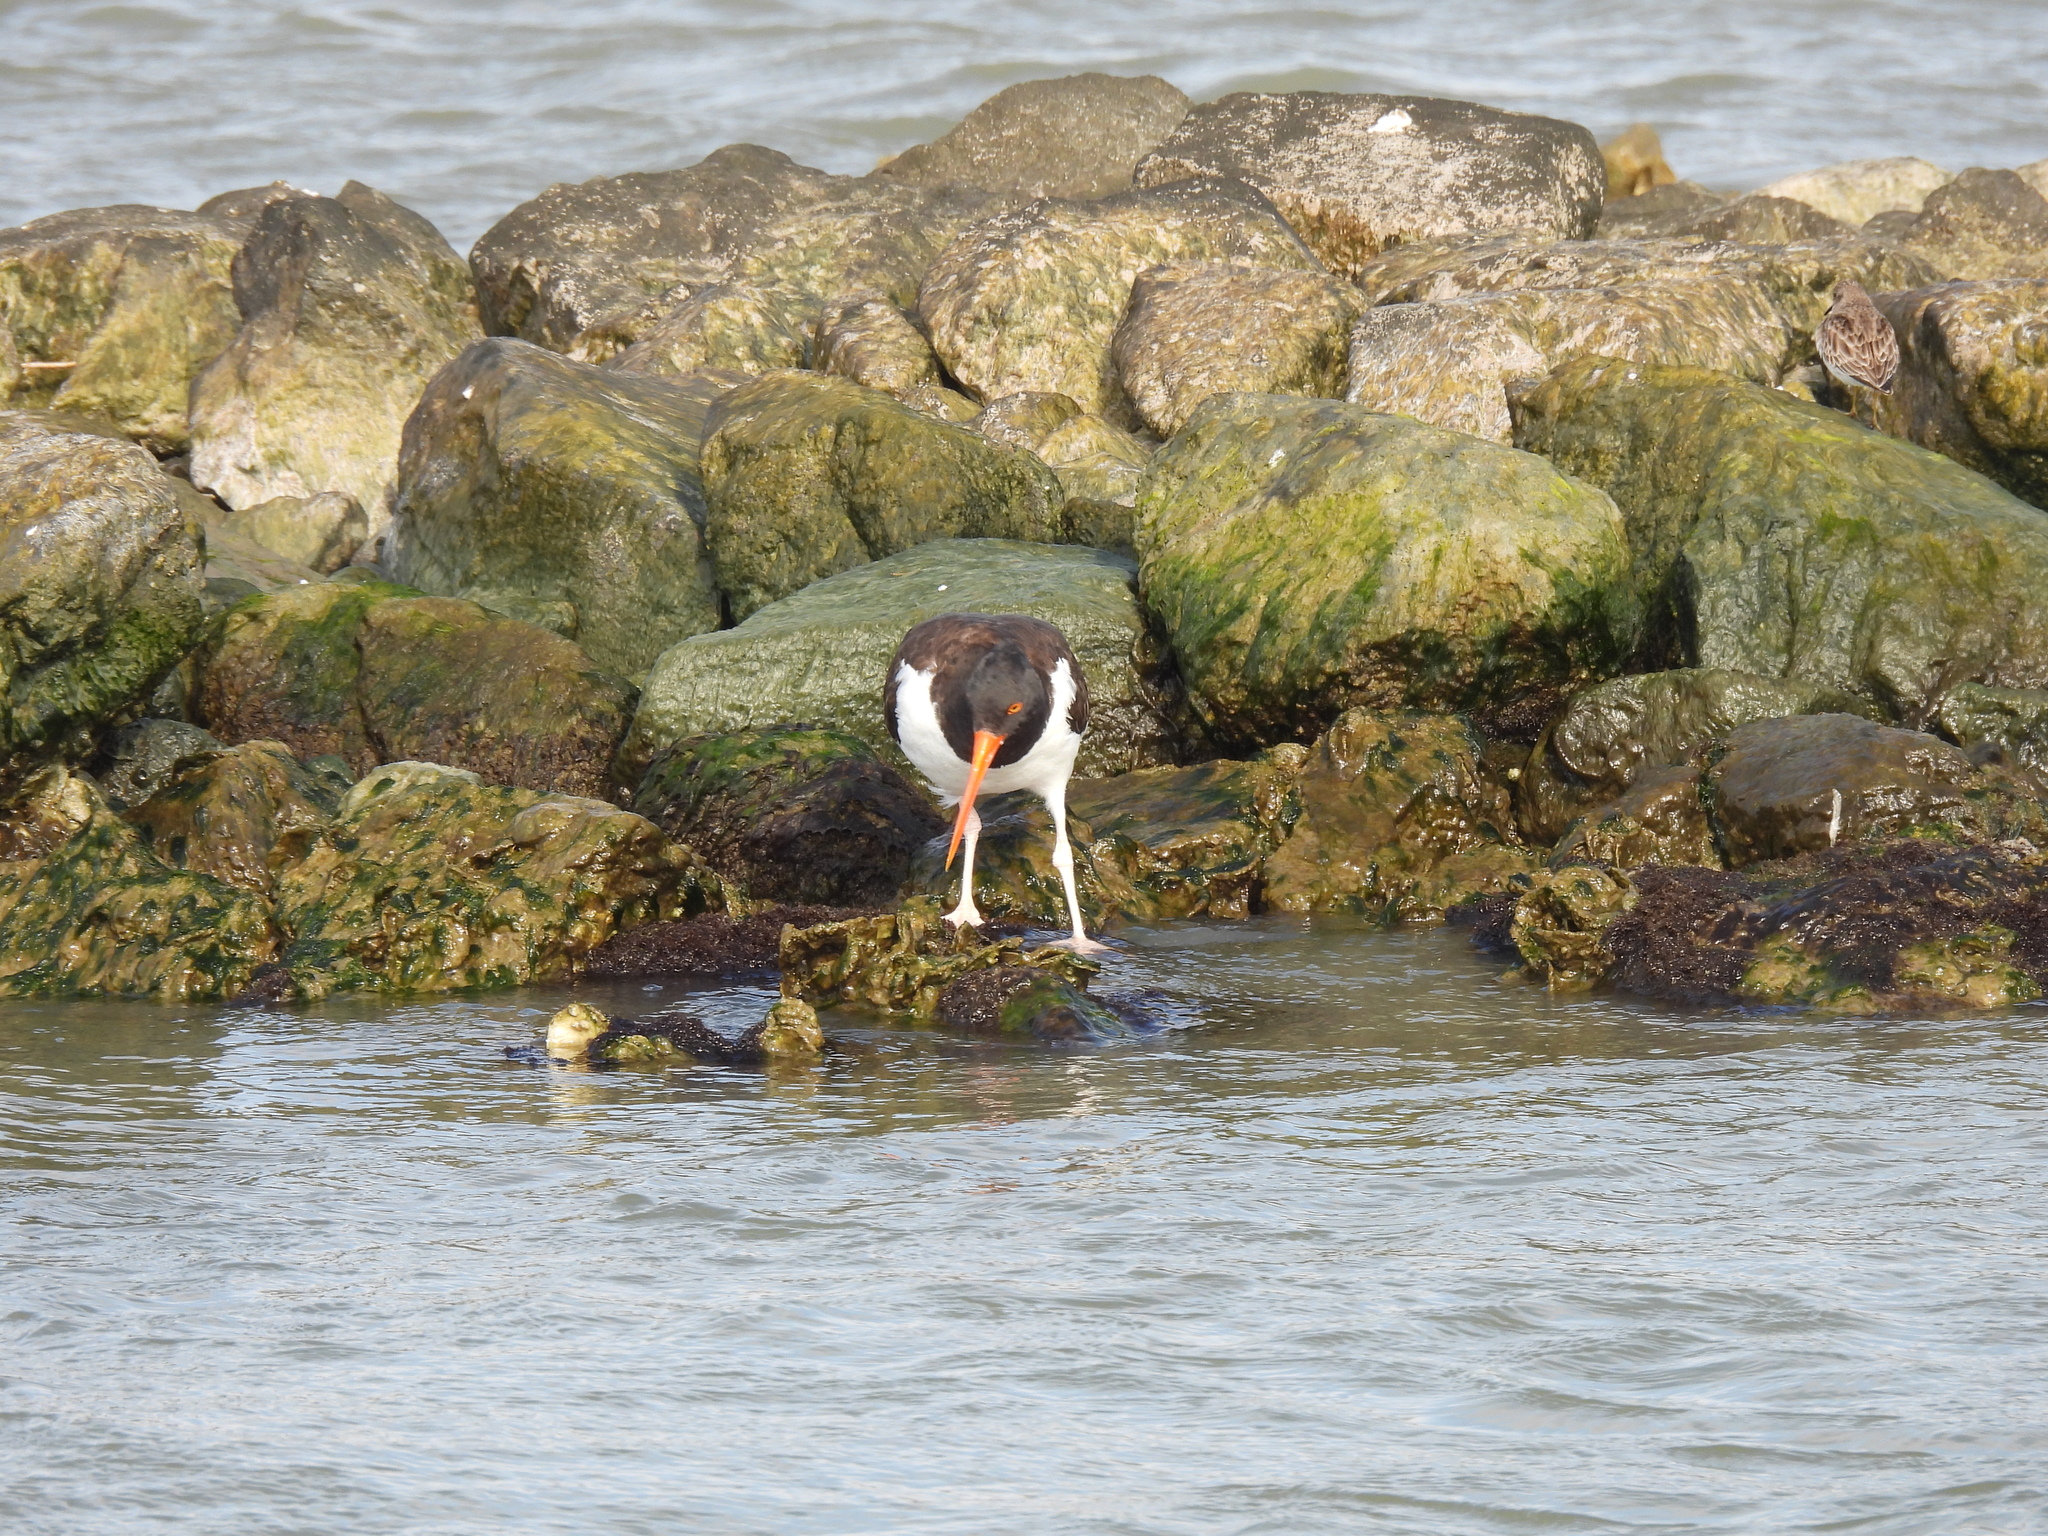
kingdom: Animalia
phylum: Chordata
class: Aves
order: Charadriiformes
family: Haematopodidae
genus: Haematopus
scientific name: Haematopus palliatus
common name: American oystercatcher
